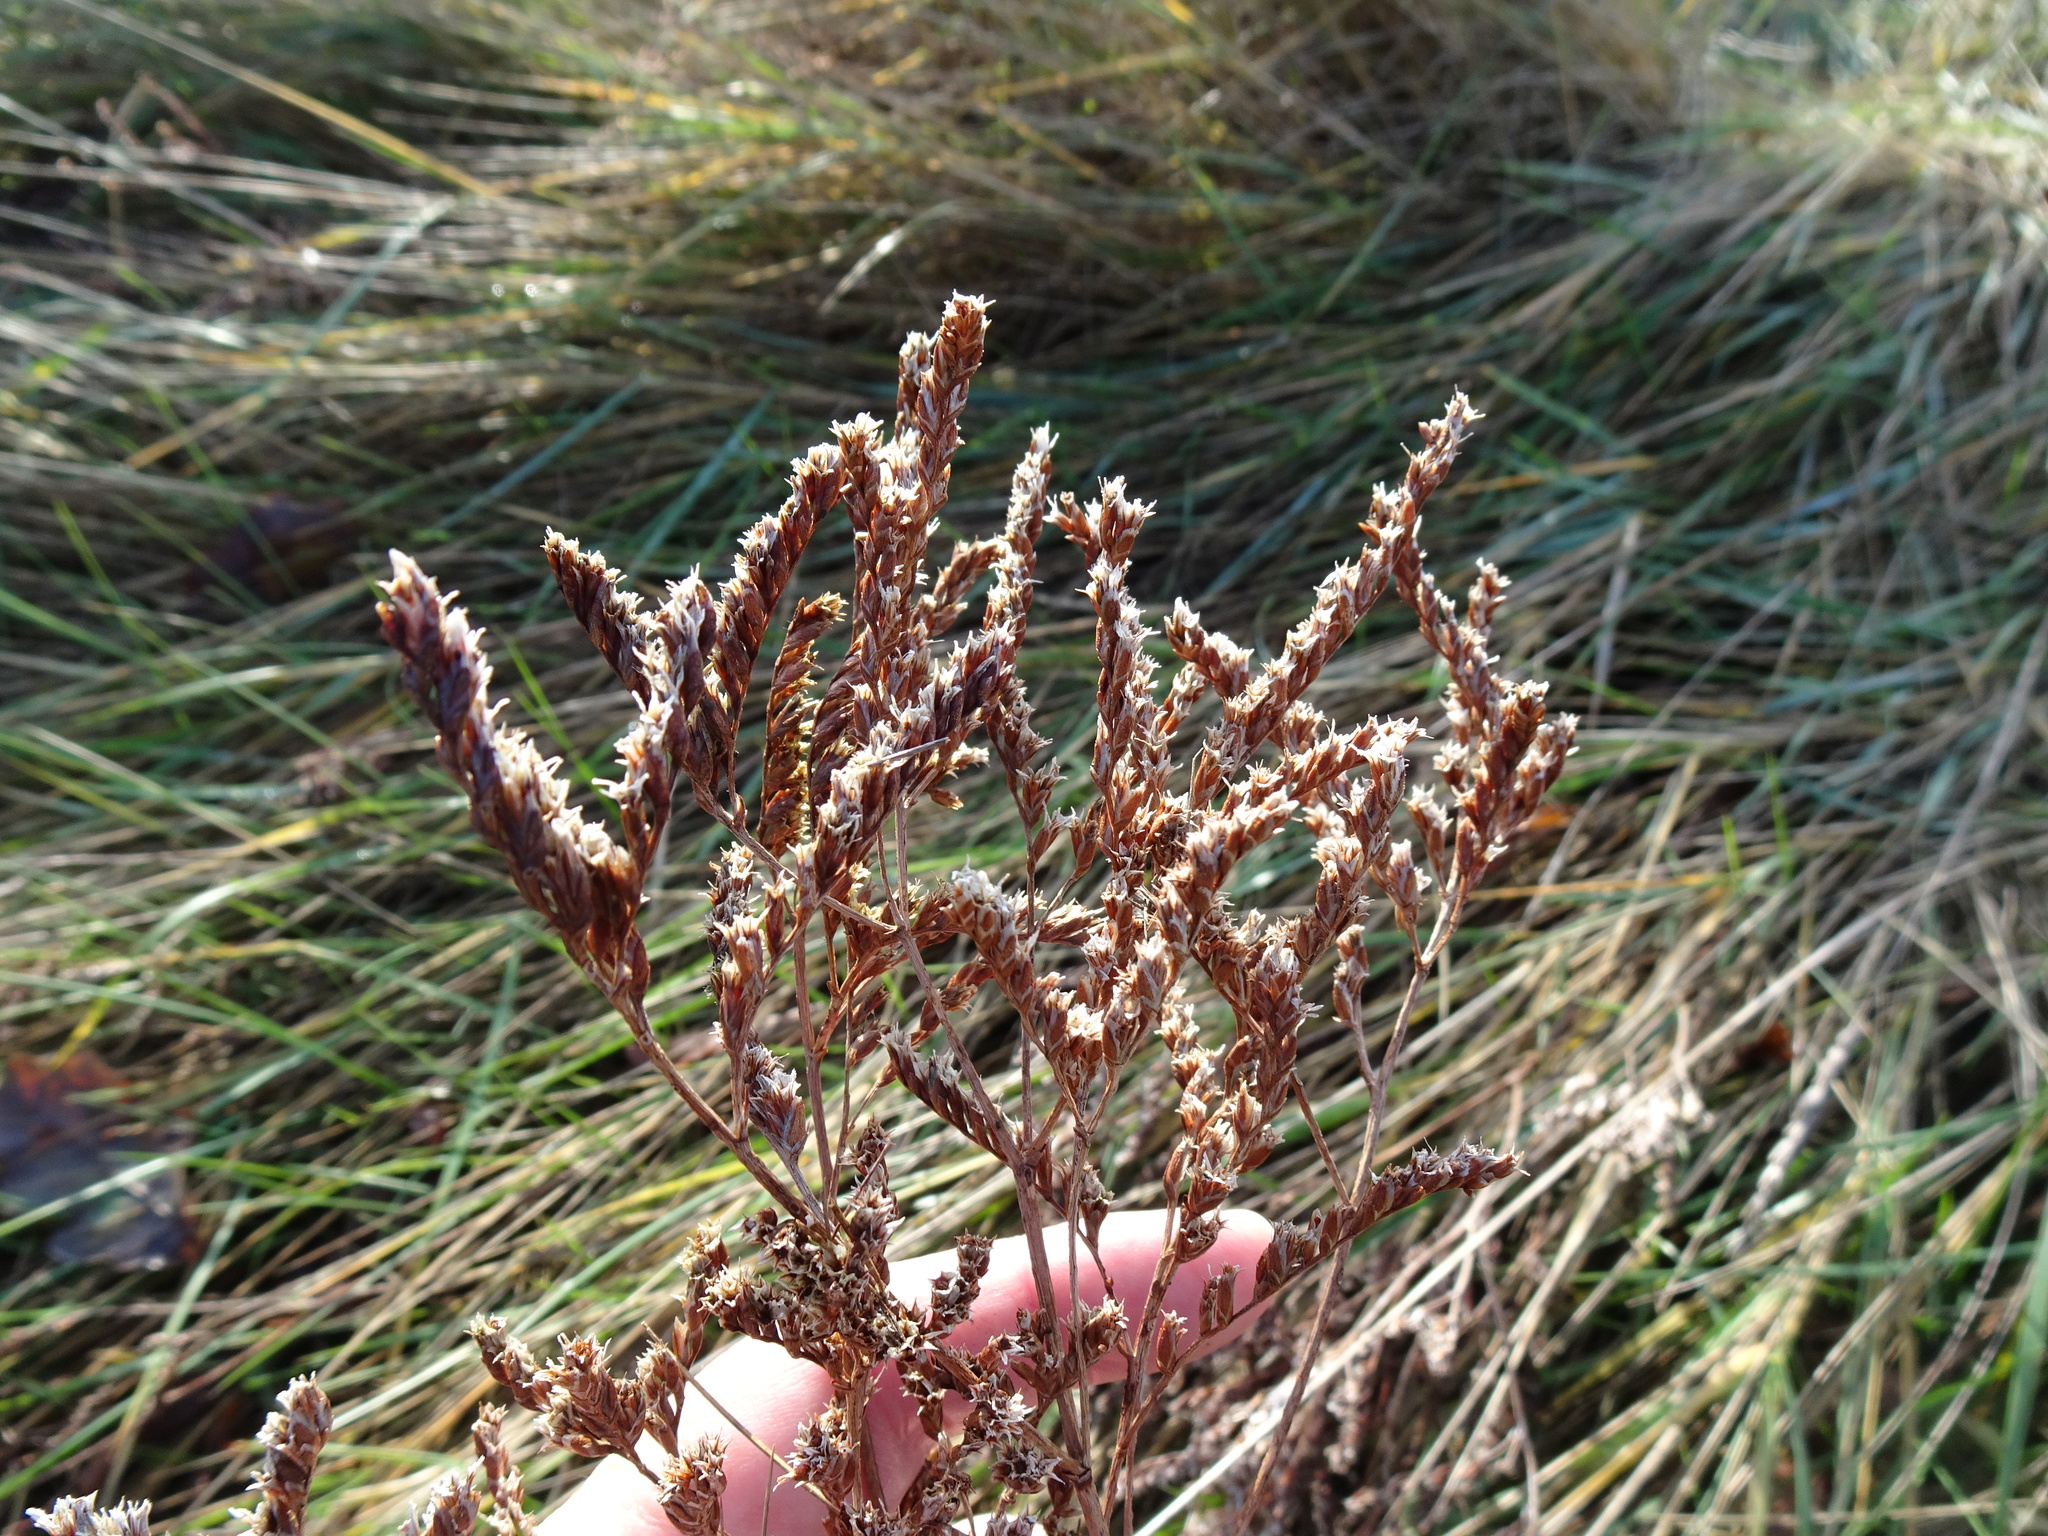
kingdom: Plantae
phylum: Tracheophyta
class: Magnoliopsida
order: Caryophyllales
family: Plumbaginaceae
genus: Limonium
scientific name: Limonium vulgare
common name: Common sea-lavender
